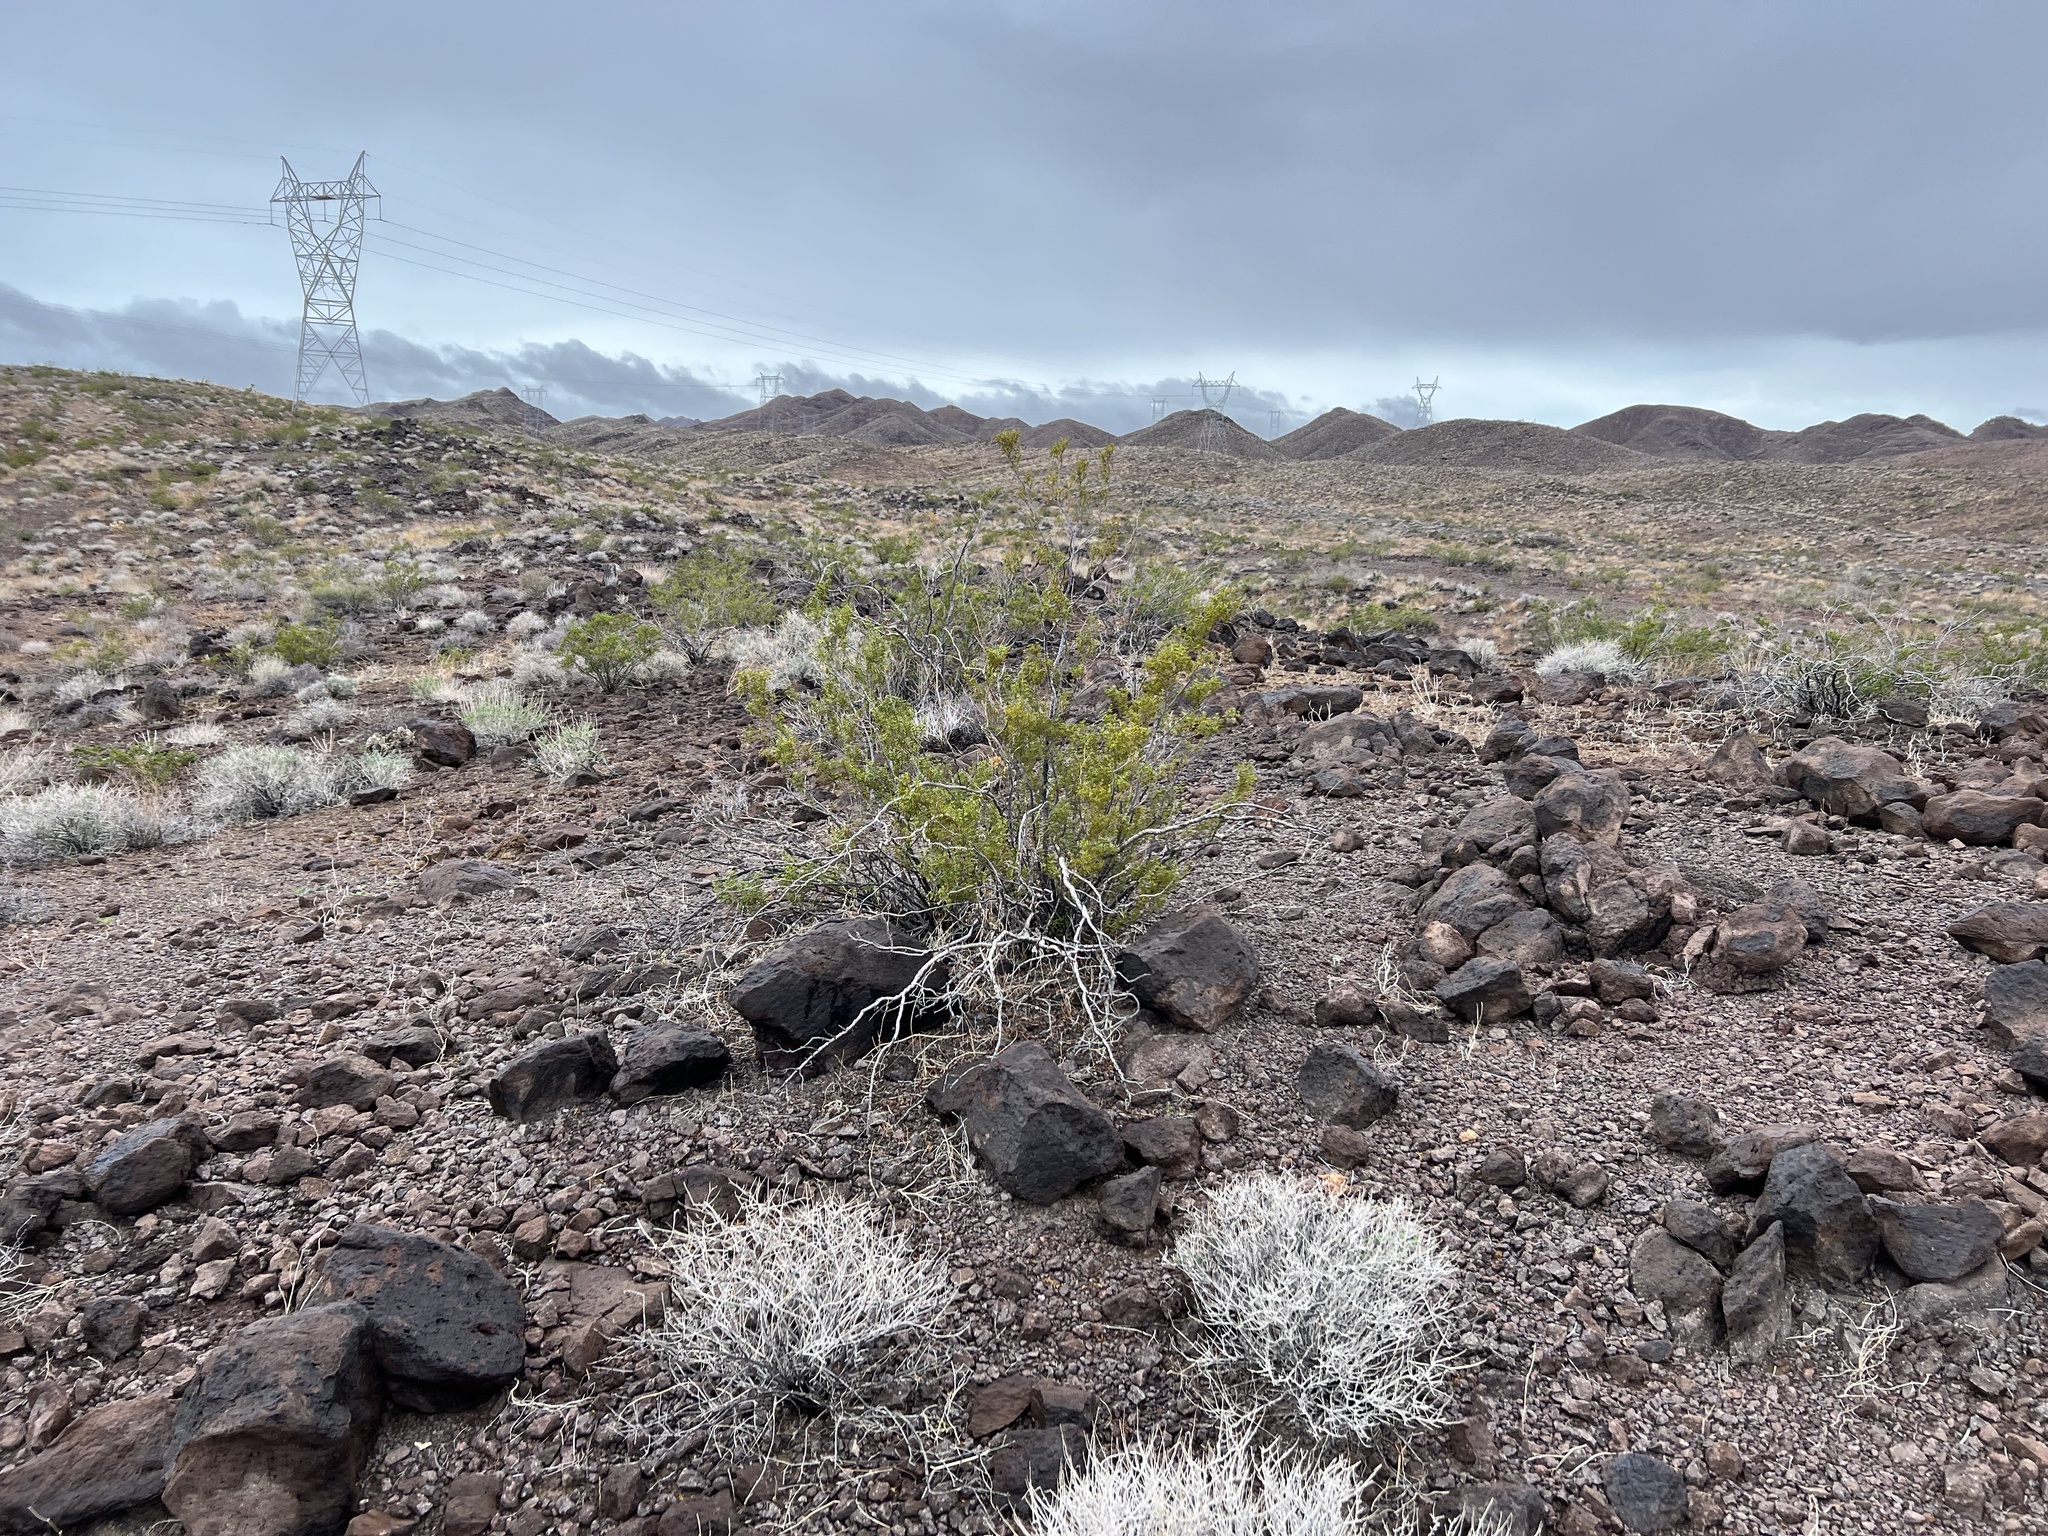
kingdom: Plantae
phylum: Tracheophyta
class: Magnoliopsida
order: Zygophyllales
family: Zygophyllaceae
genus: Larrea
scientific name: Larrea tridentata
